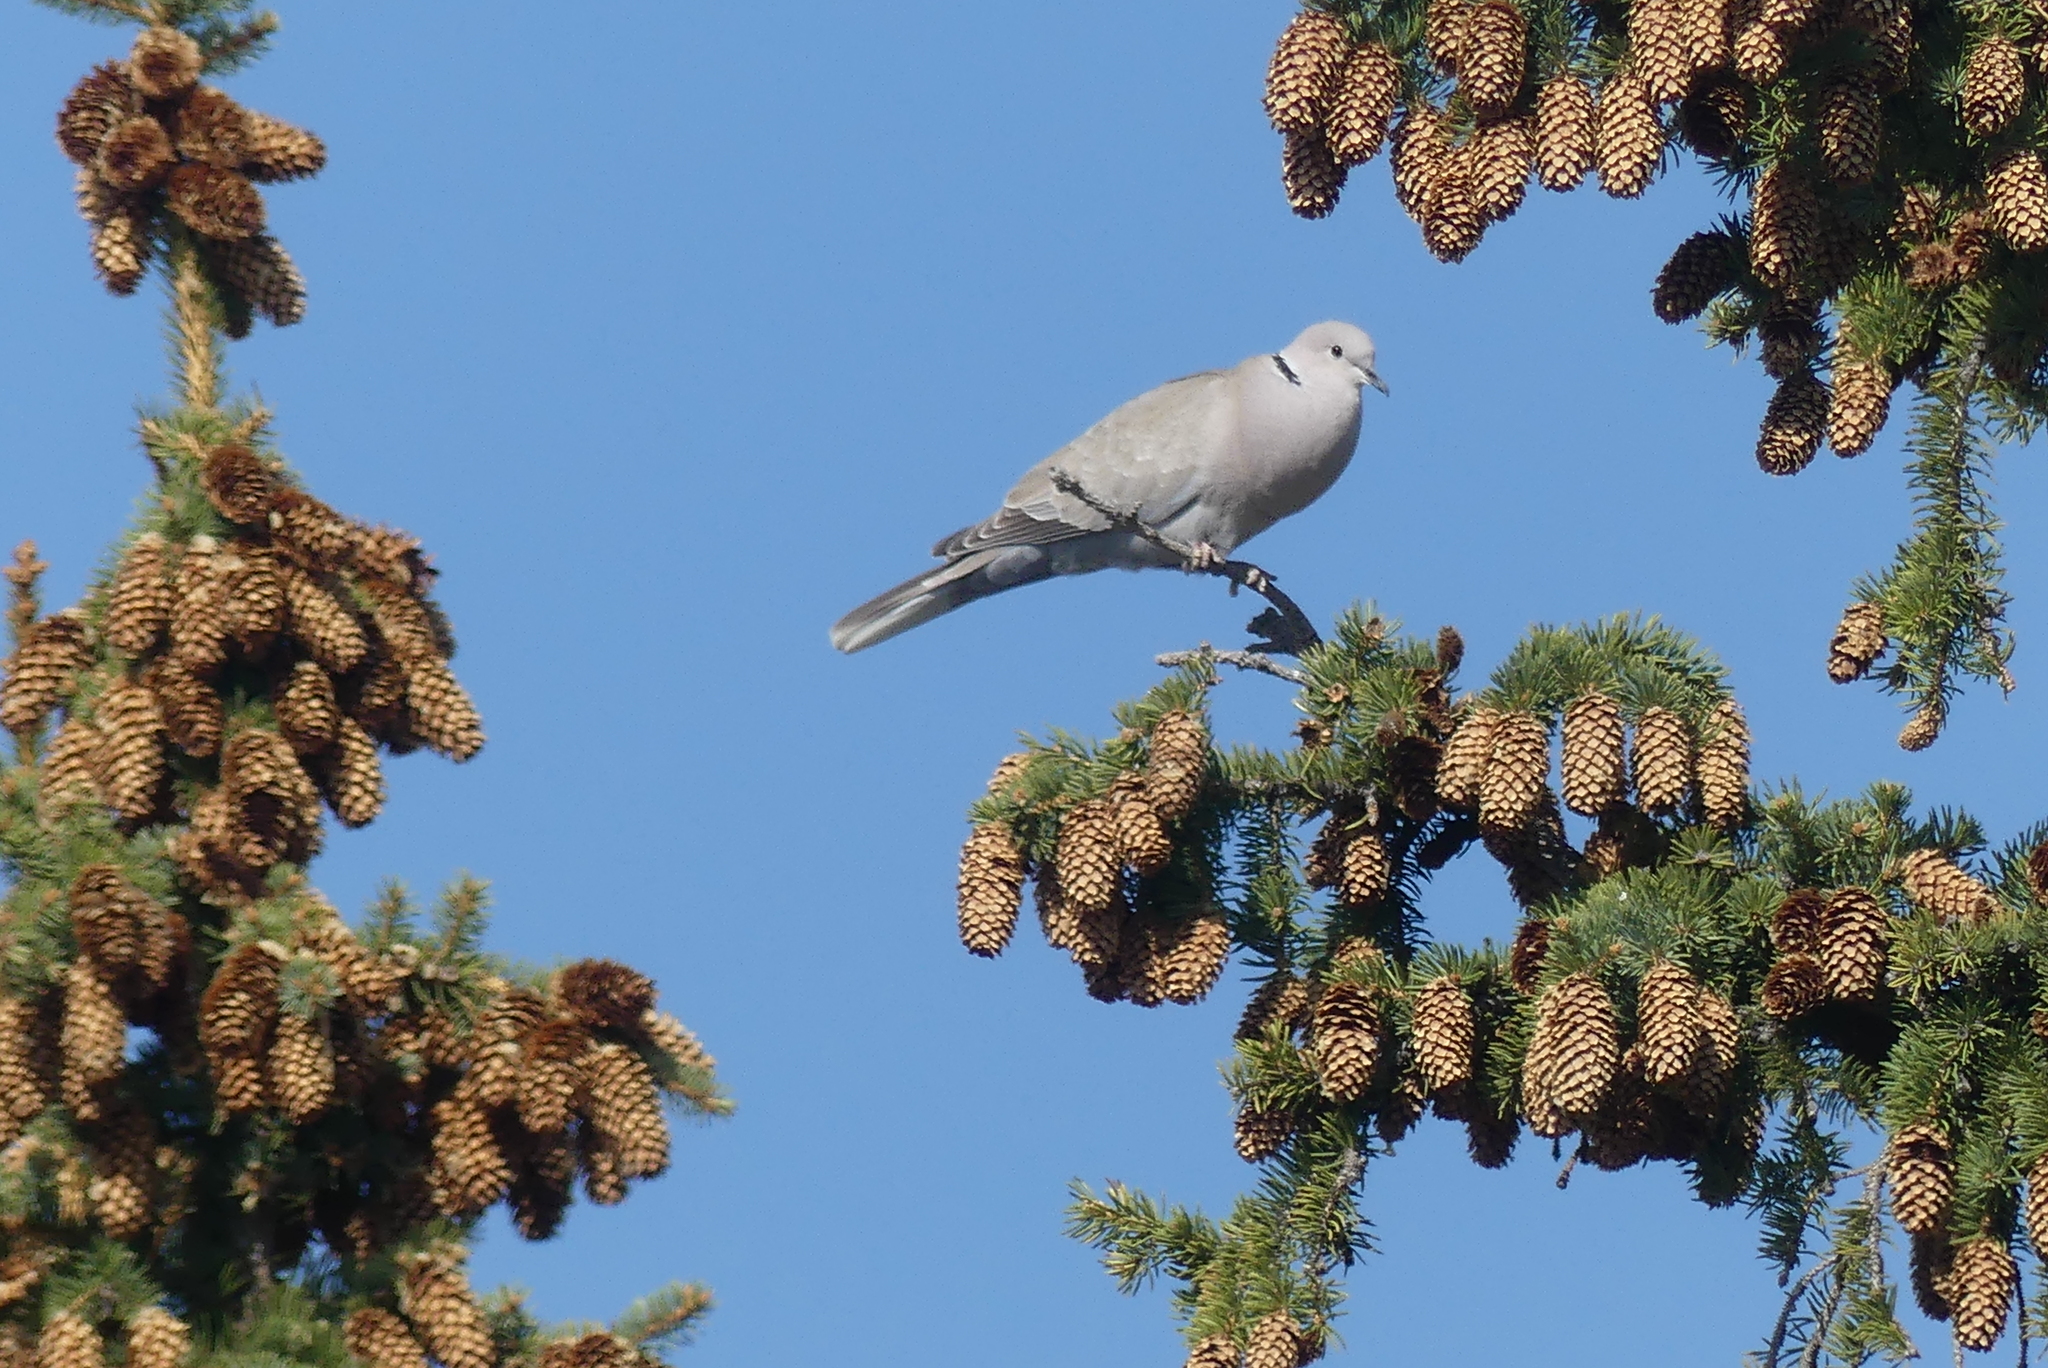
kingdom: Animalia
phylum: Chordata
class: Aves
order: Columbiformes
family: Columbidae
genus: Streptopelia
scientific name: Streptopelia decaocto
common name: Eurasian collared dove
